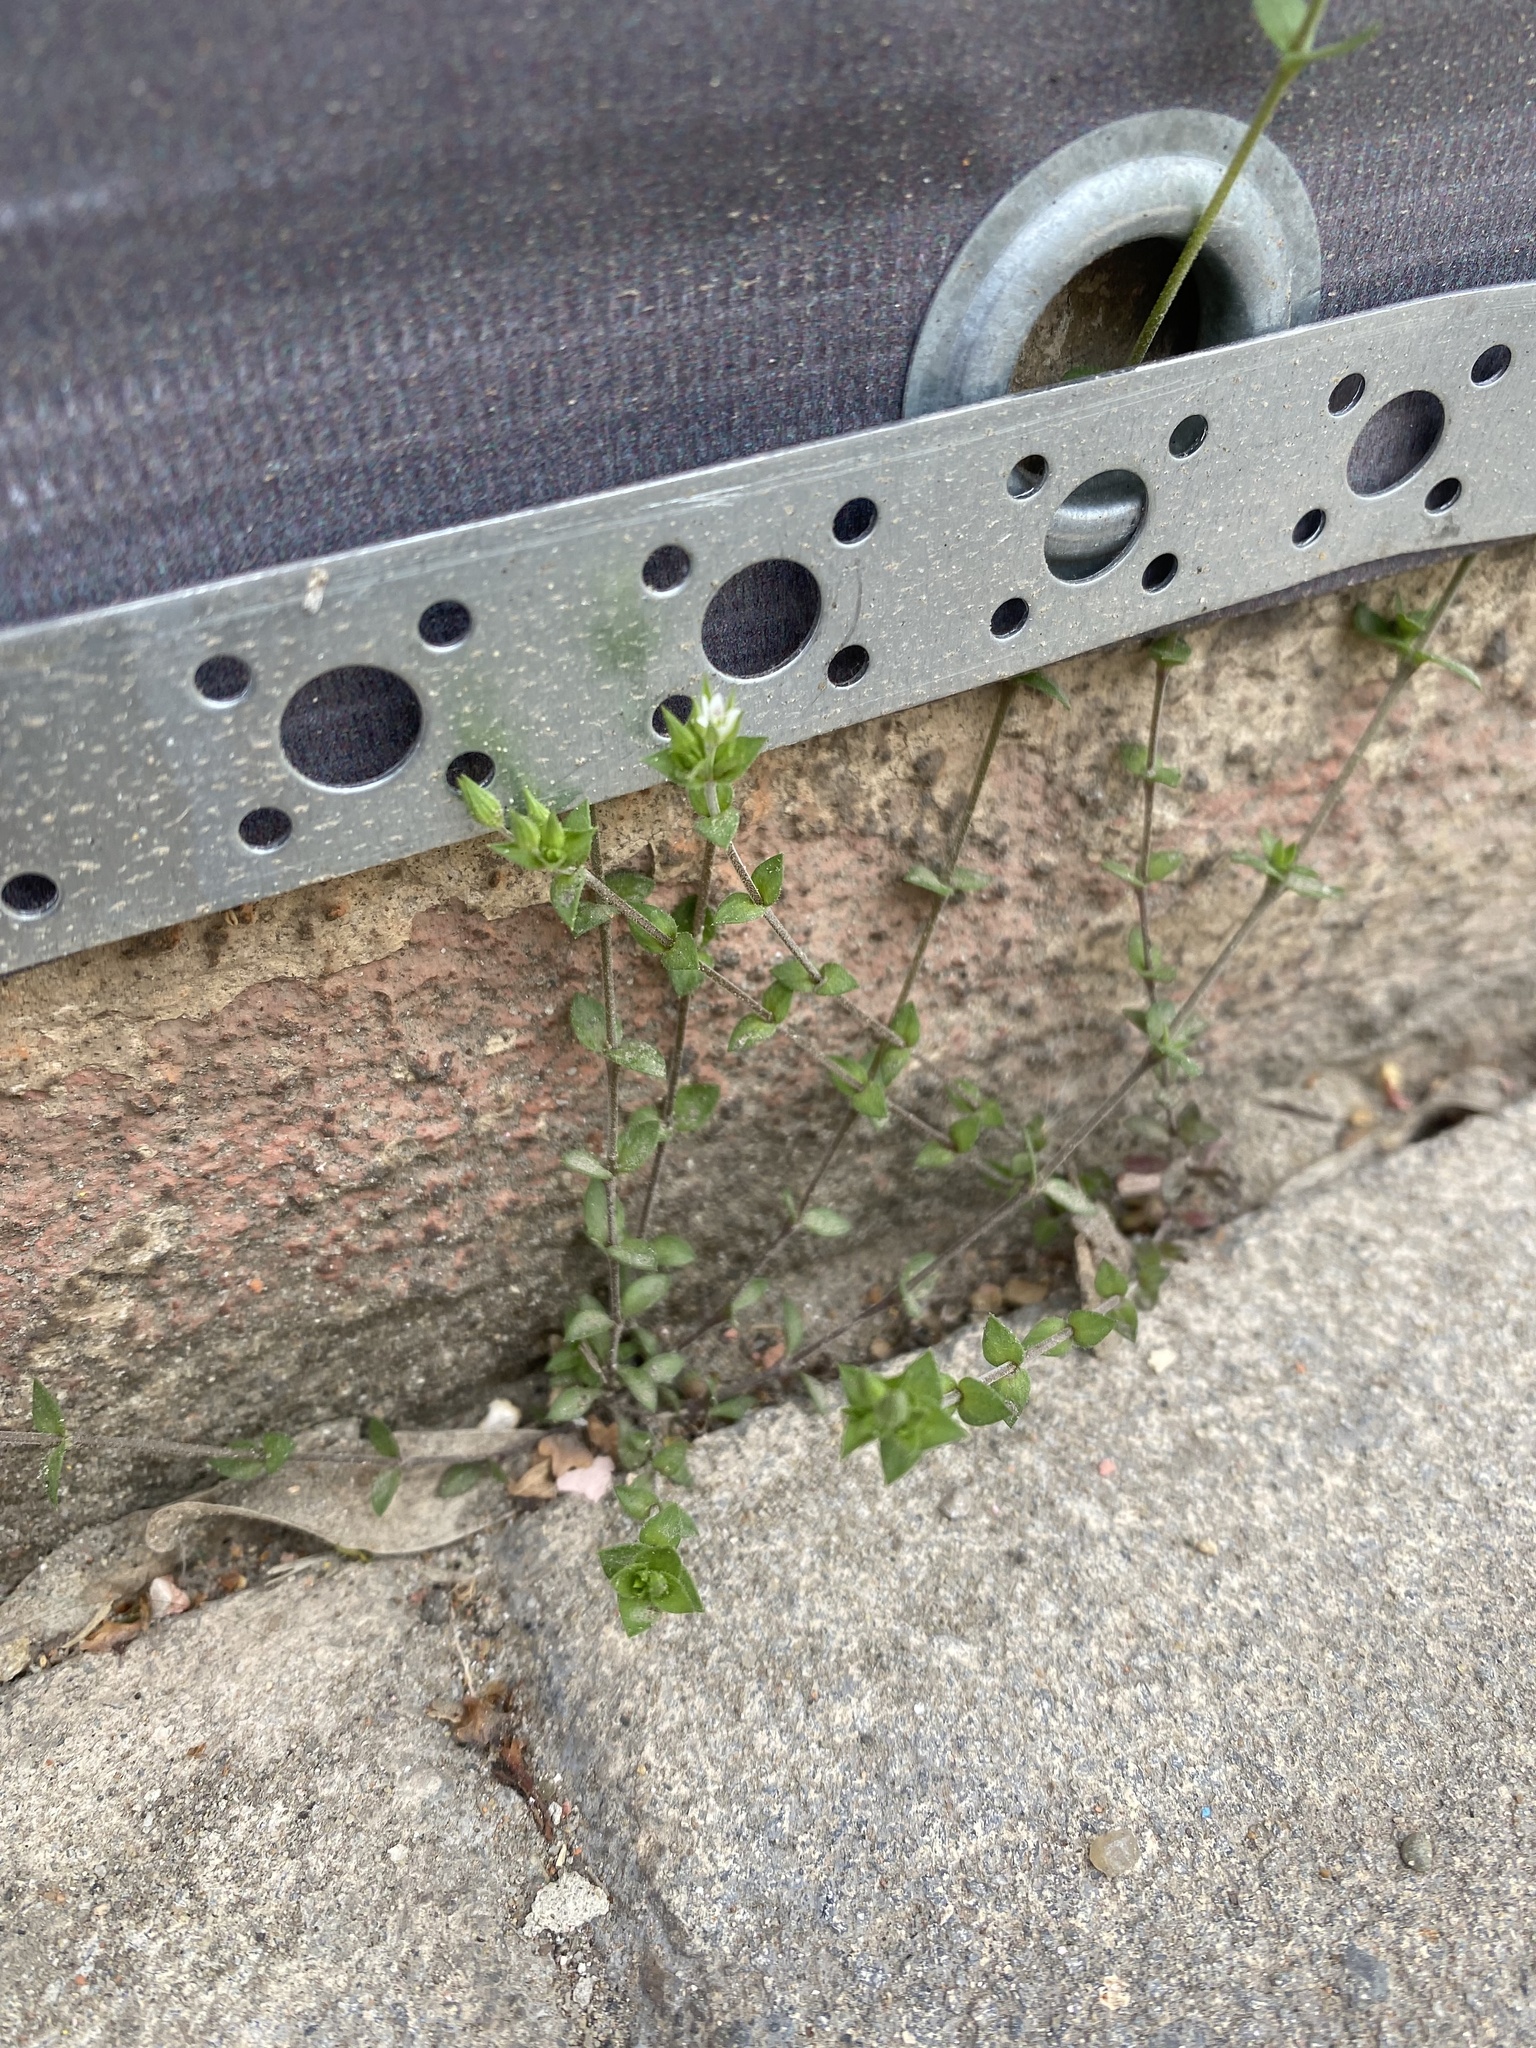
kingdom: Plantae
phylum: Tracheophyta
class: Magnoliopsida
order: Caryophyllales
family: Caryophyllaceae
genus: Arenaria
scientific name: Arenaria serpyllifolia
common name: Thyme-leaved sandwort
